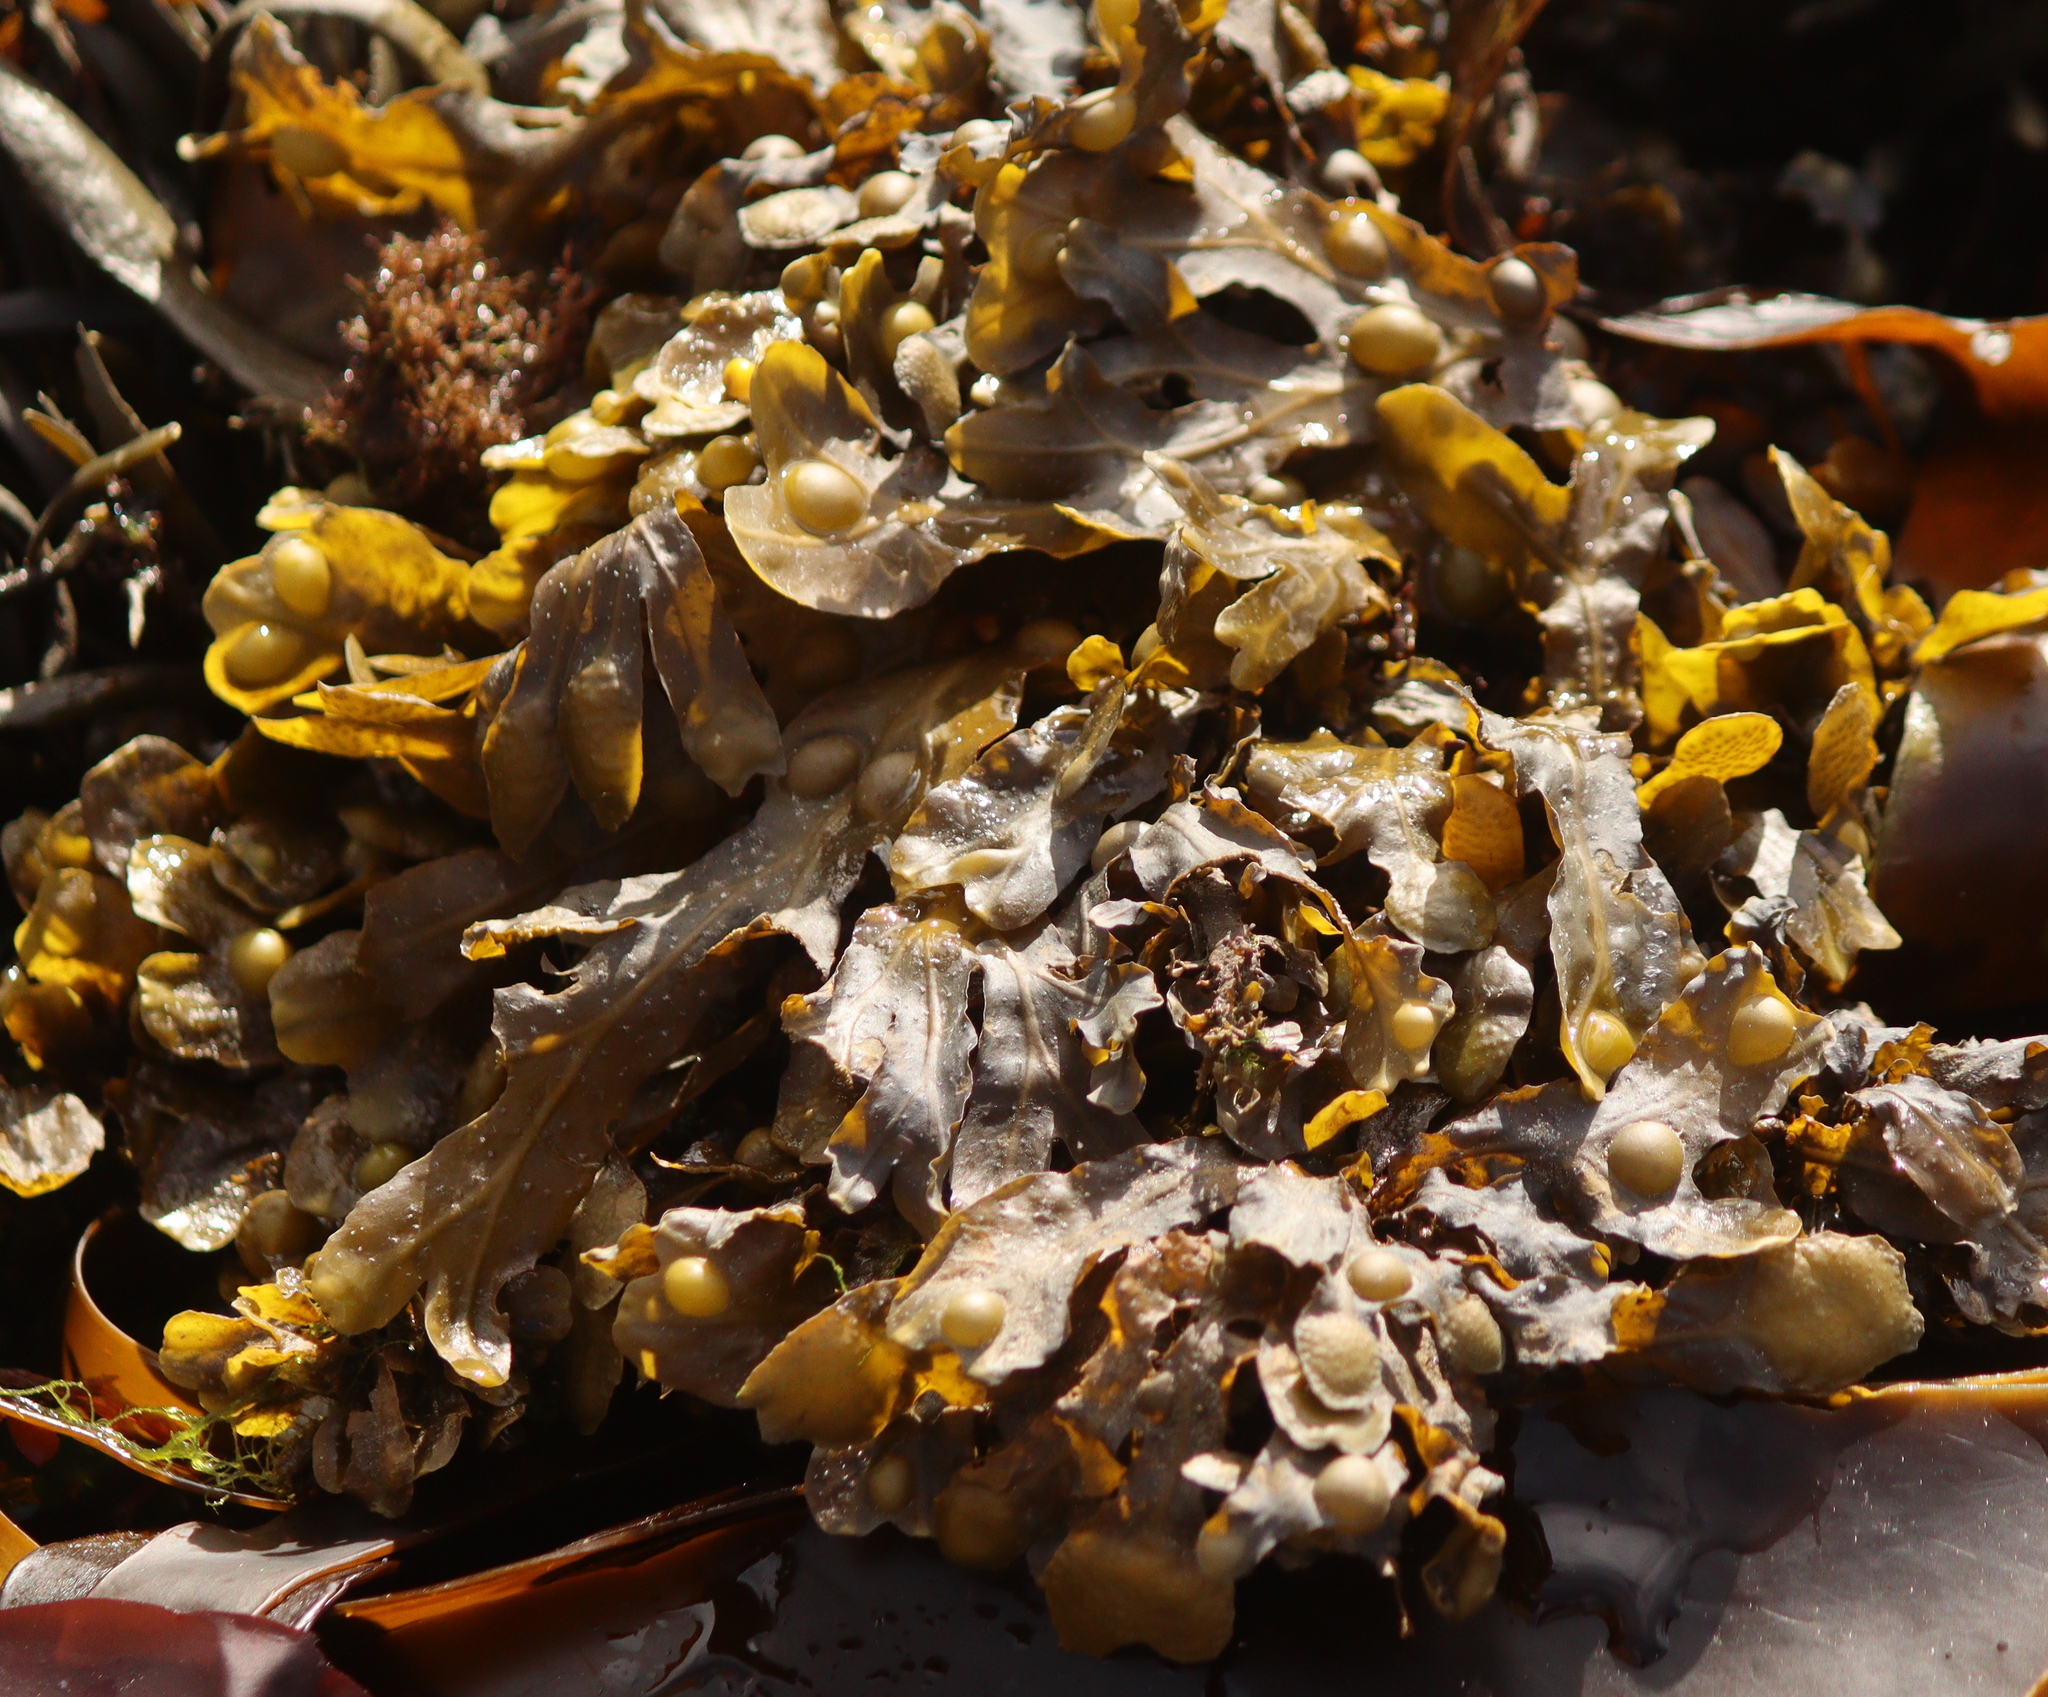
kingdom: Chromista
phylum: Ochrophyta
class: Phaeophyceae
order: Fucales
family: Fucaceae
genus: Fucus
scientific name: Fucus vesiculosus
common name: Bladder wrack
